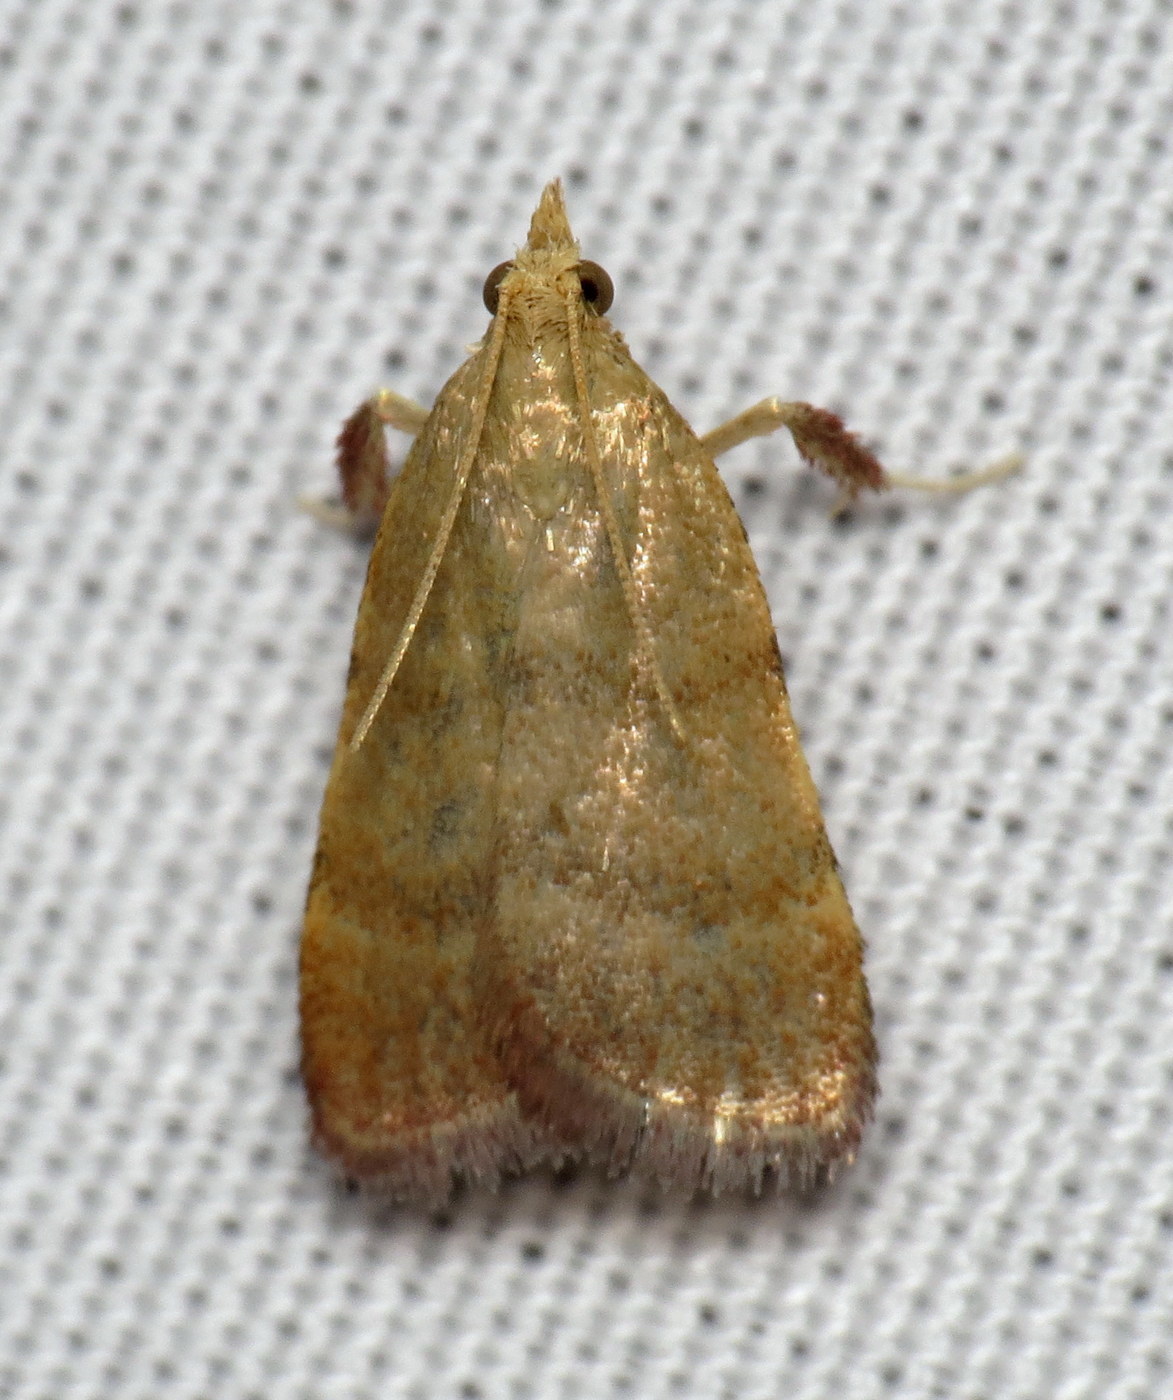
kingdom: Animalia
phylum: Arthropoda
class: Insecta
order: Lepidoptera
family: Pyralidae
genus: Condylolomia
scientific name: Condylolomia participialis
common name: Drab condylolomia moth
